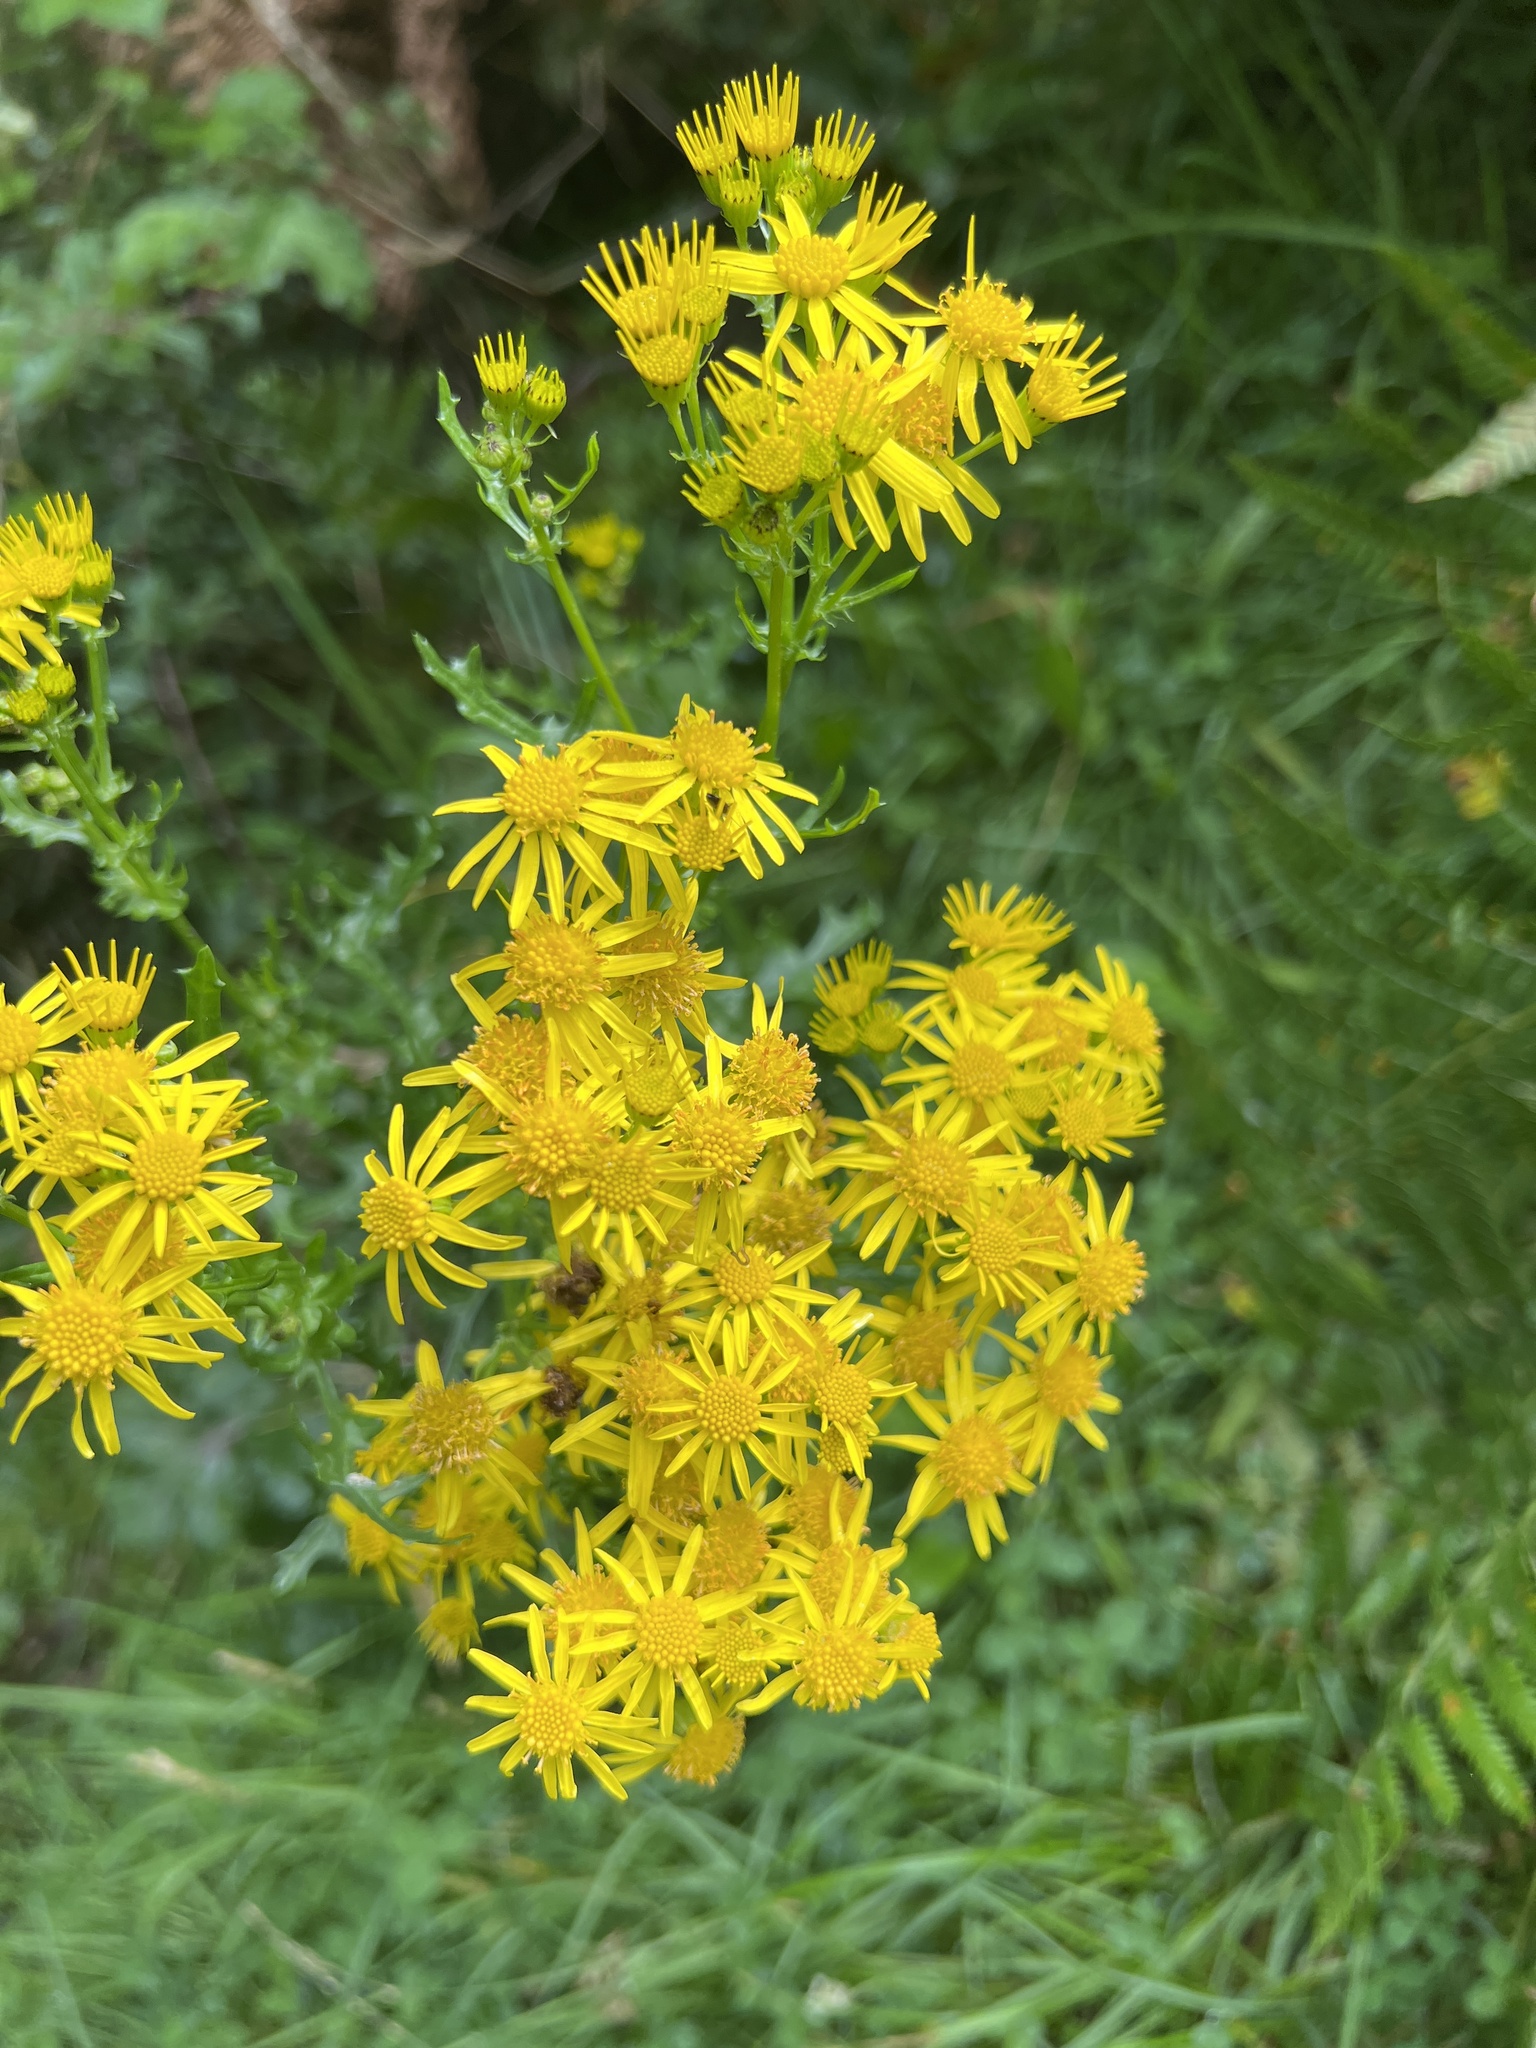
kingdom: Plantae
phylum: Tracheophyta
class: Magnoliopsida
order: Asterales
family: Asteraceae
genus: Jacobaea
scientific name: Jacobaea vulgaris
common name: Stinking willie
